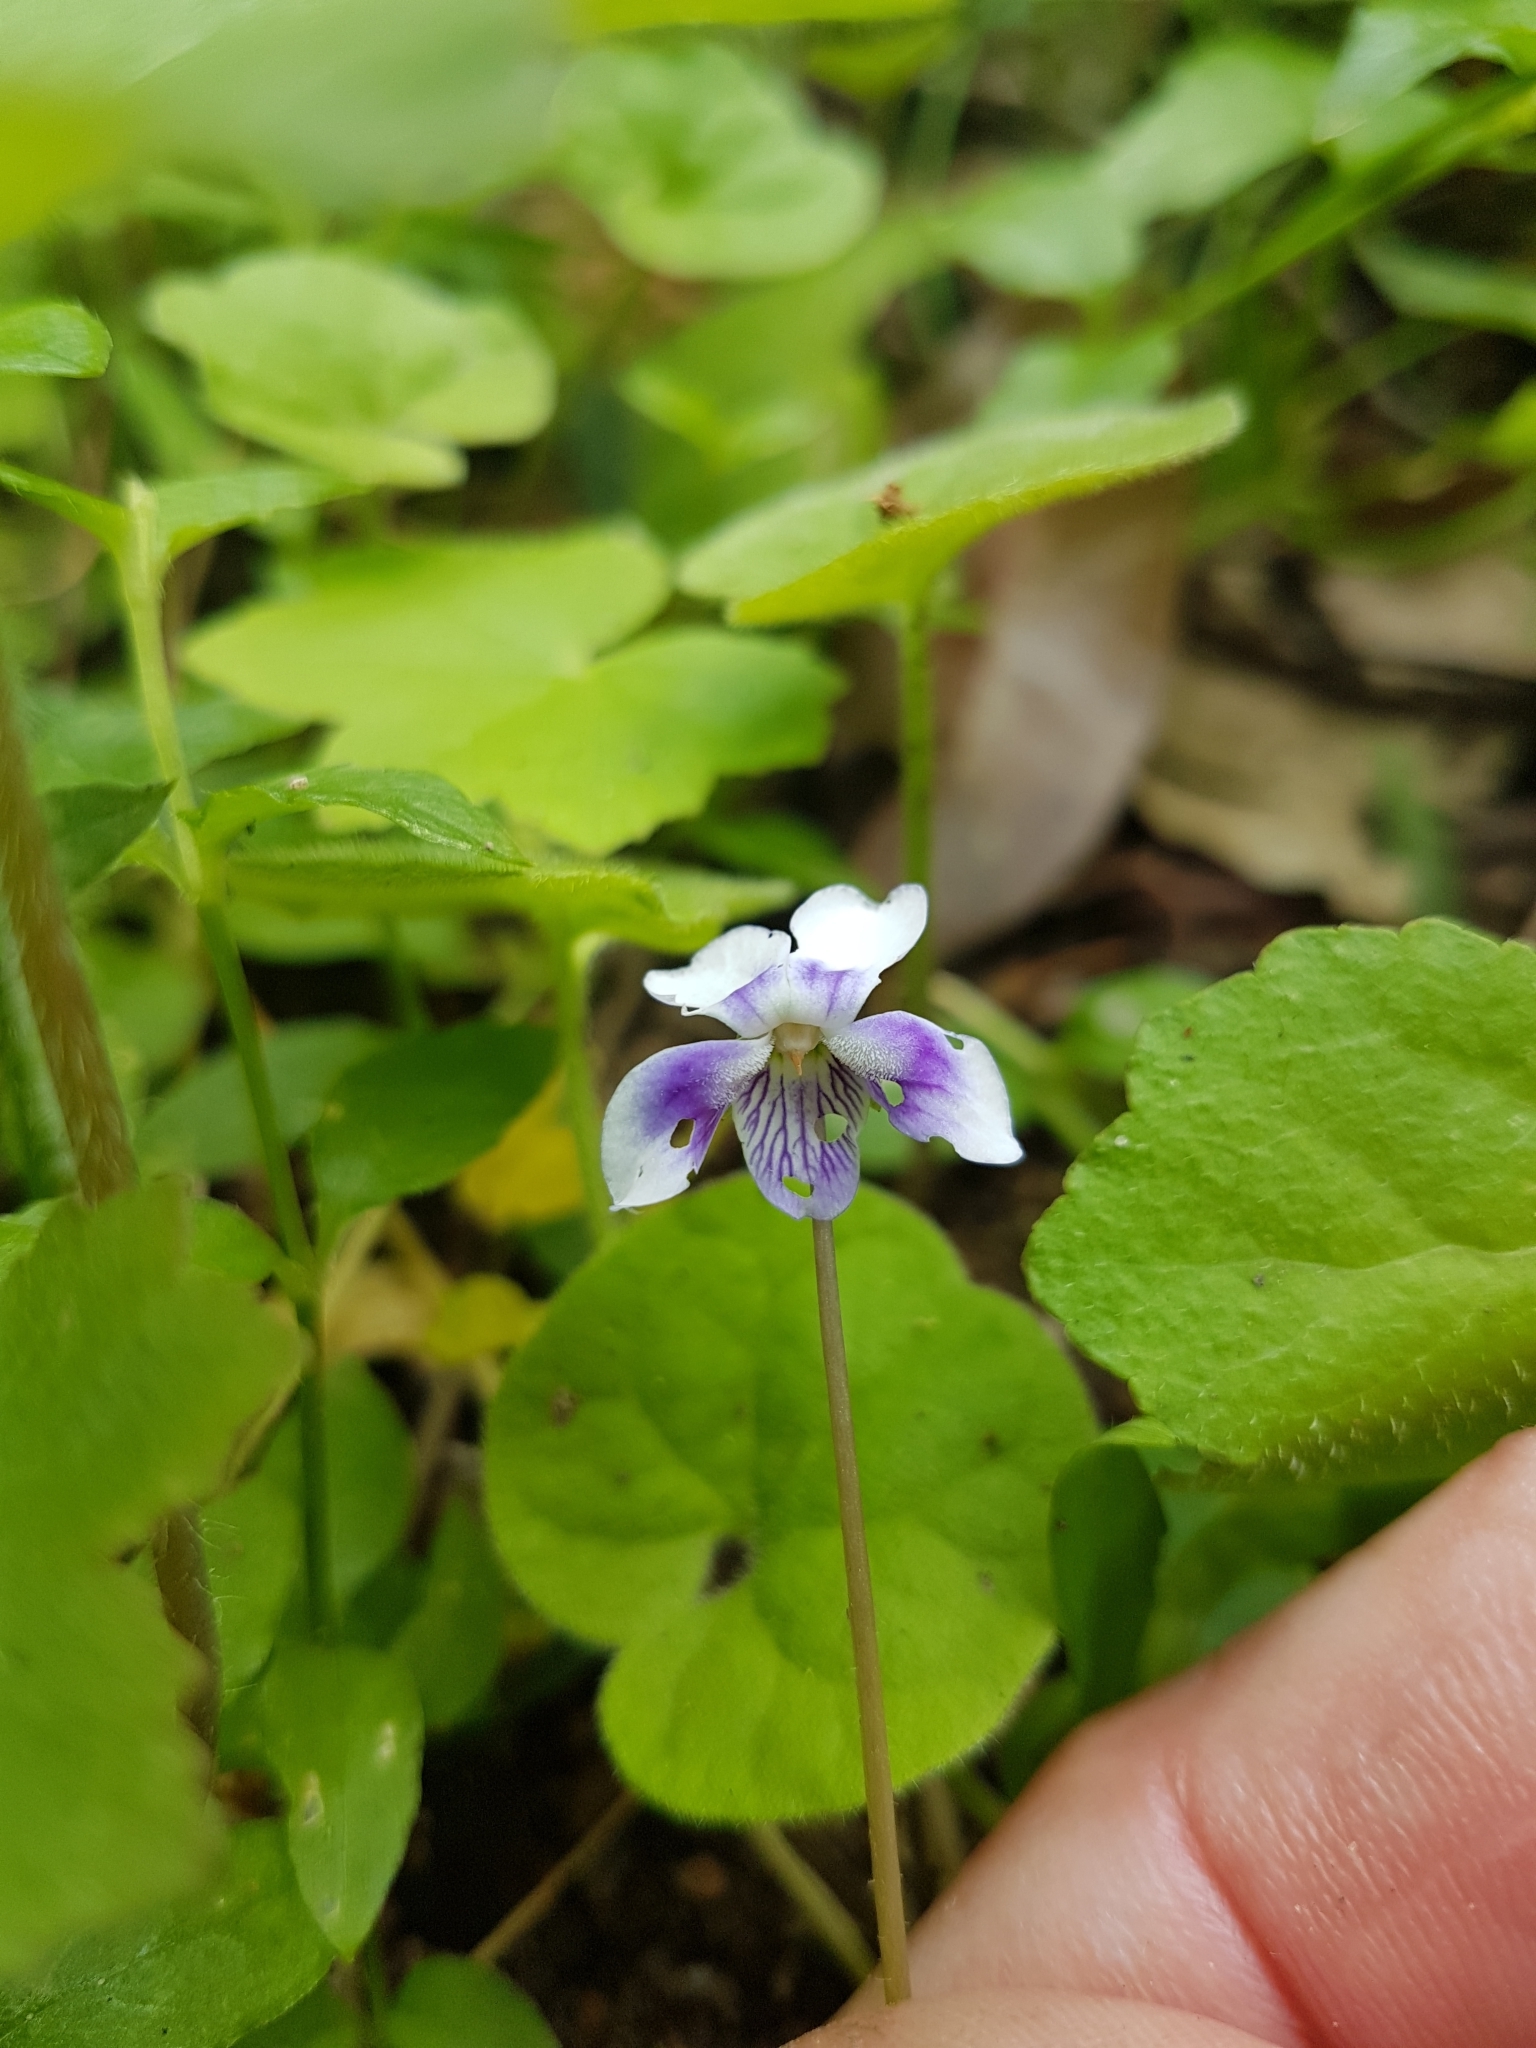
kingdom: Plantae
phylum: Tracheophyta
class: Magnoliopsida
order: Malpighiales
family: Violaceae
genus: Viola
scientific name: Viola banksii
